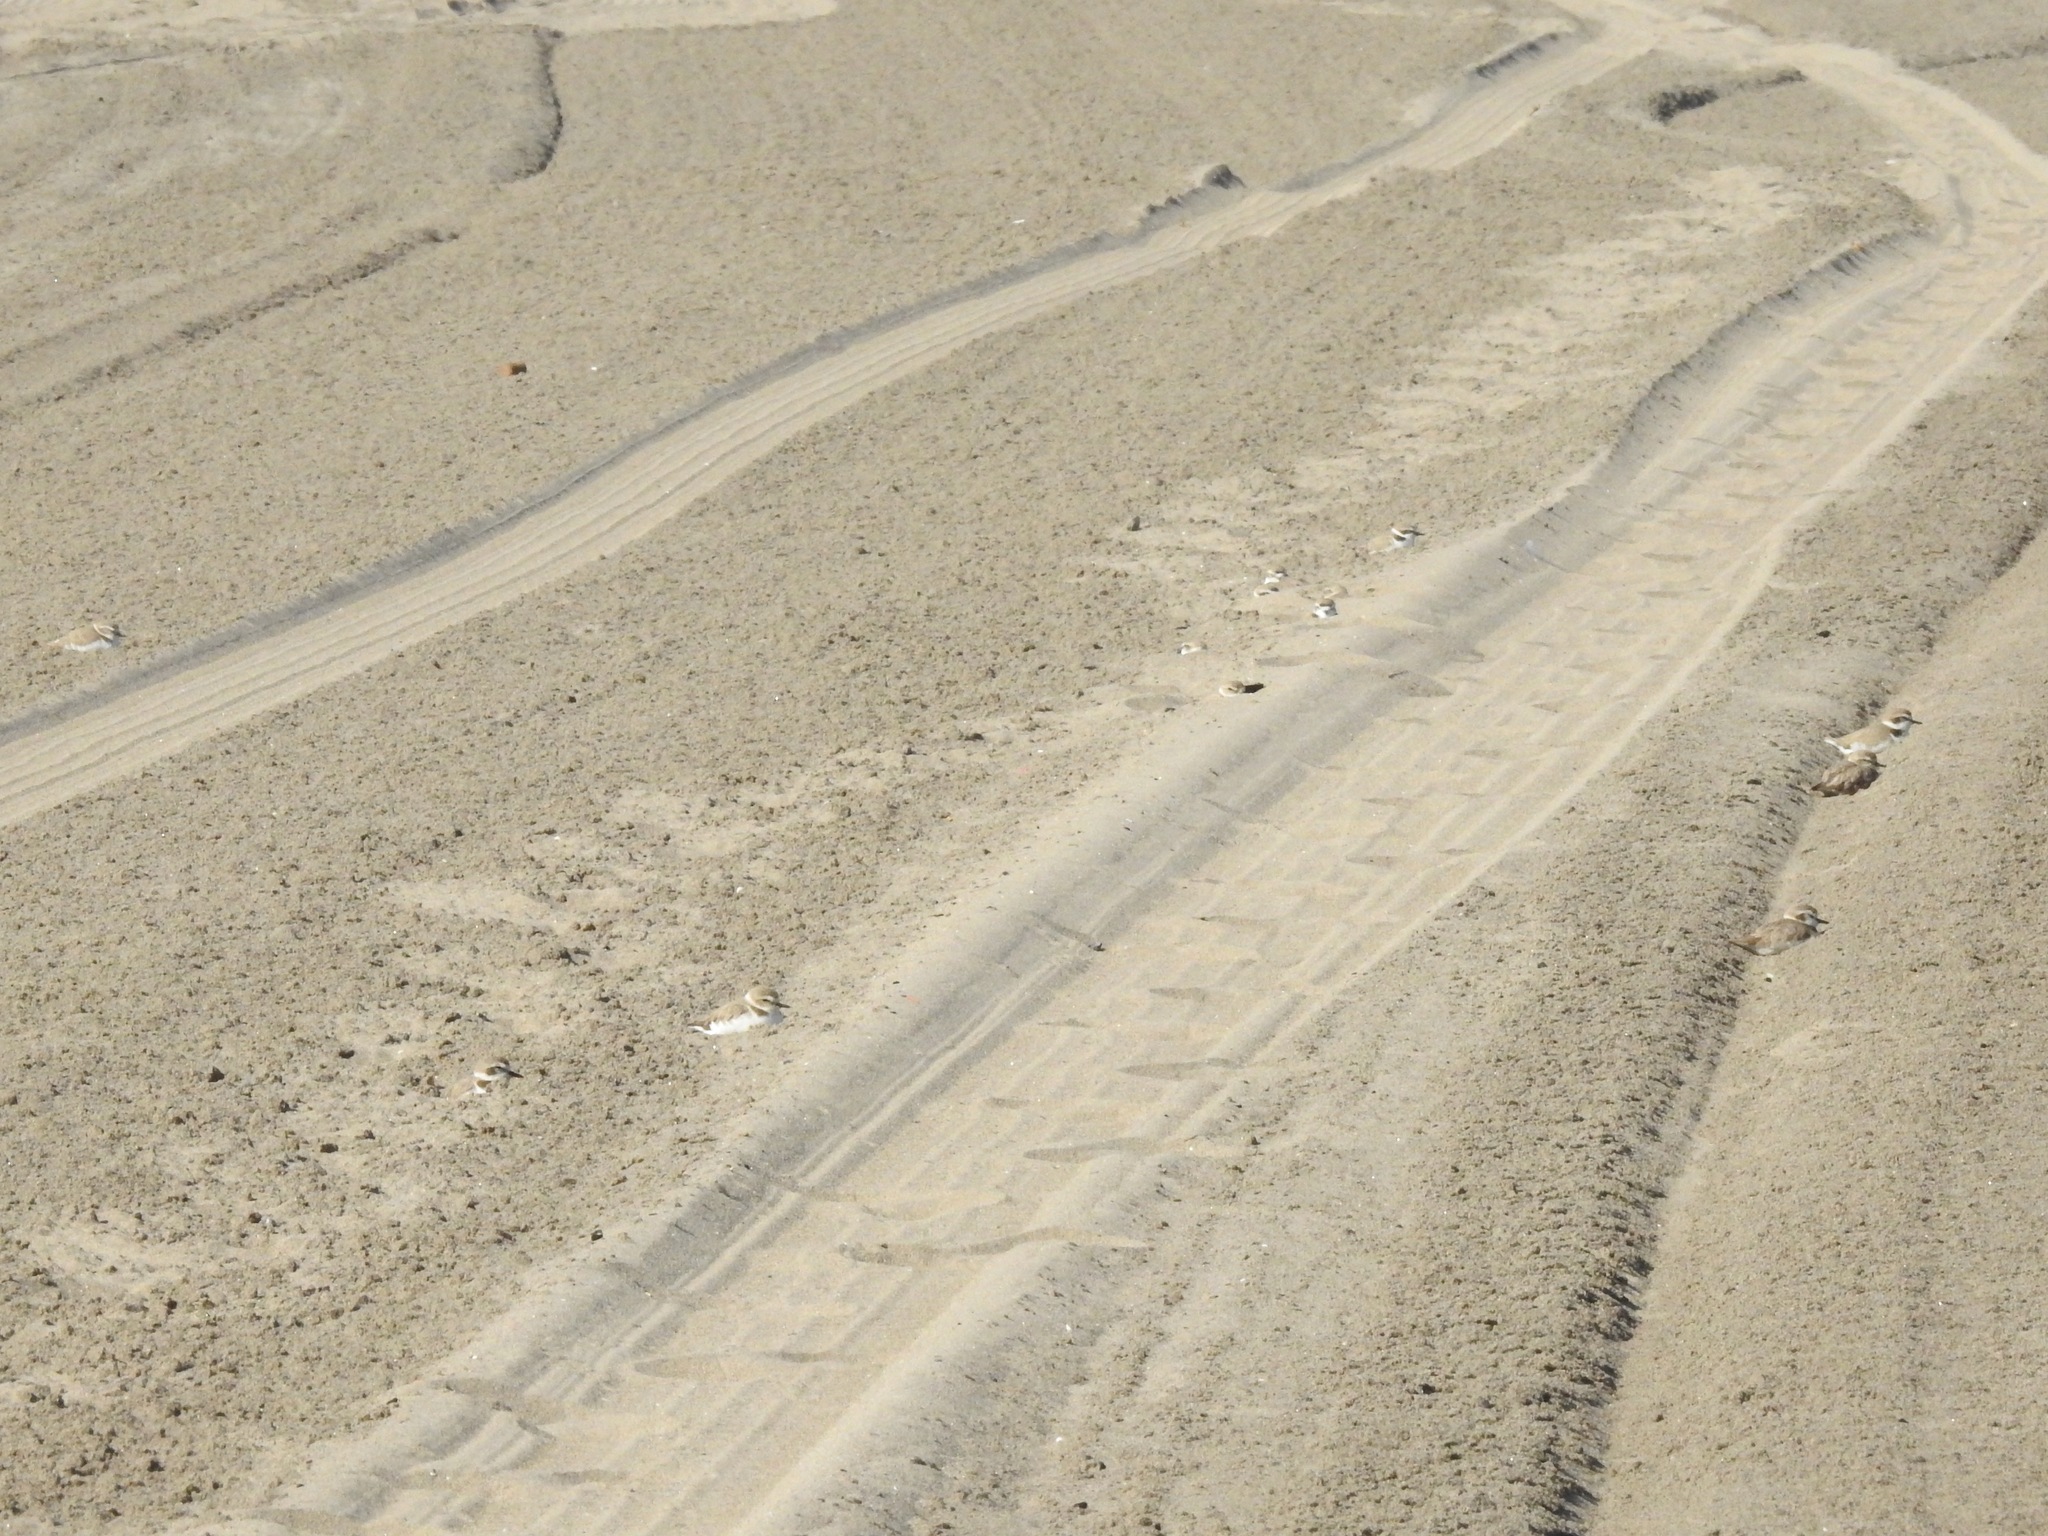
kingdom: Animalia
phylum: Chordata
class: Aves
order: Charadriiformes
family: Charadriidae
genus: Anarhynchus
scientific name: Anarhynchus
